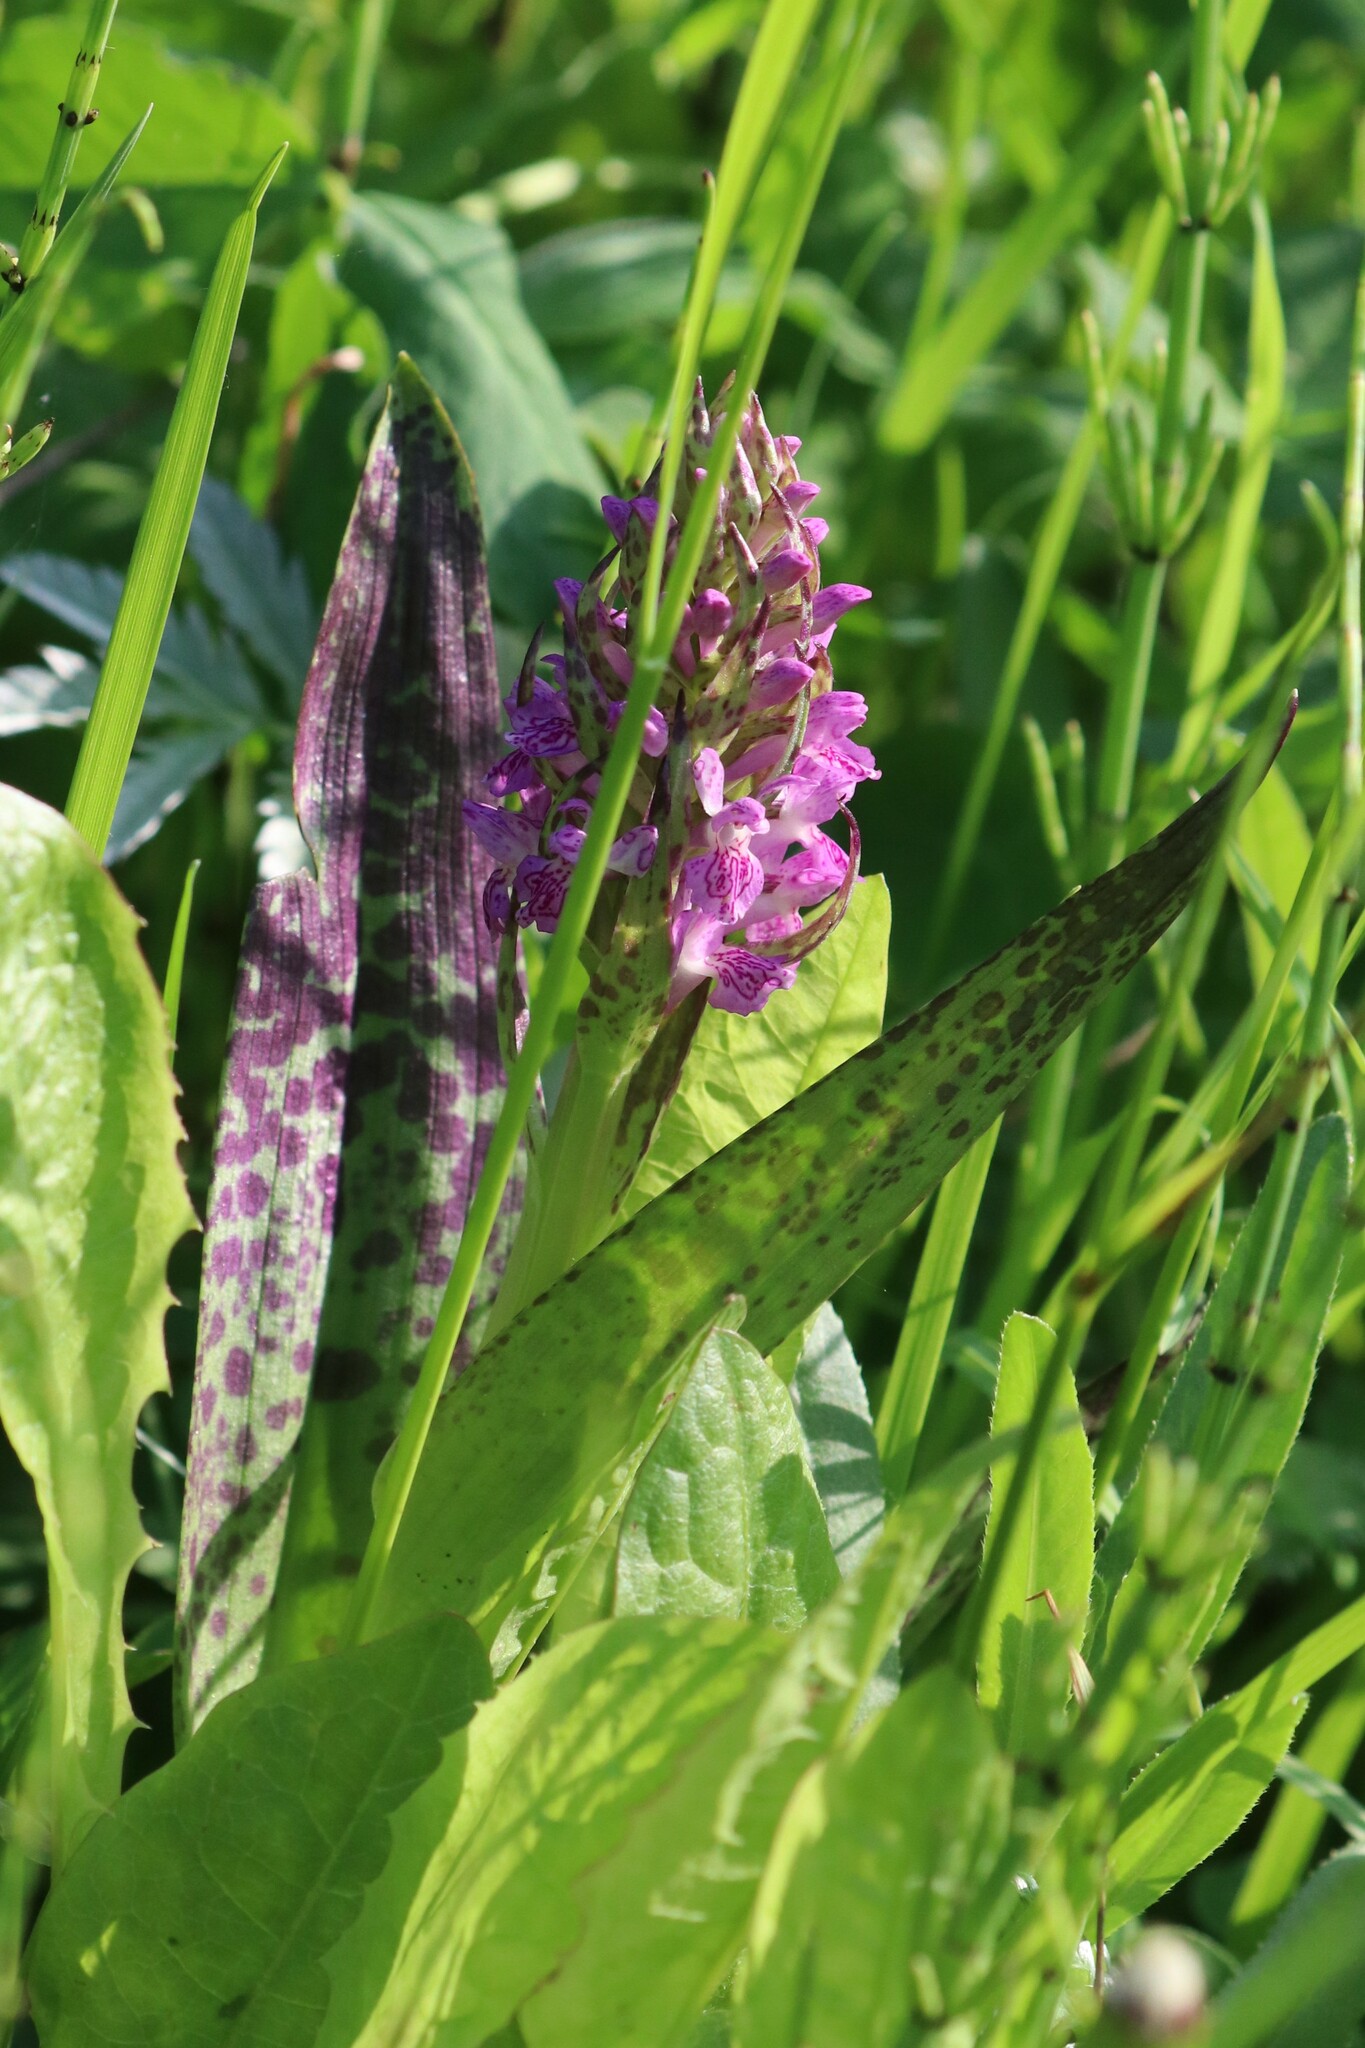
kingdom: Plantae
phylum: Tracheophyta
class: Liliopsida
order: Asparagales
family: Orchidaceae
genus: Dactylorhiza
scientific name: Dactylorhiza incarnata
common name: Early marsh-orchid
